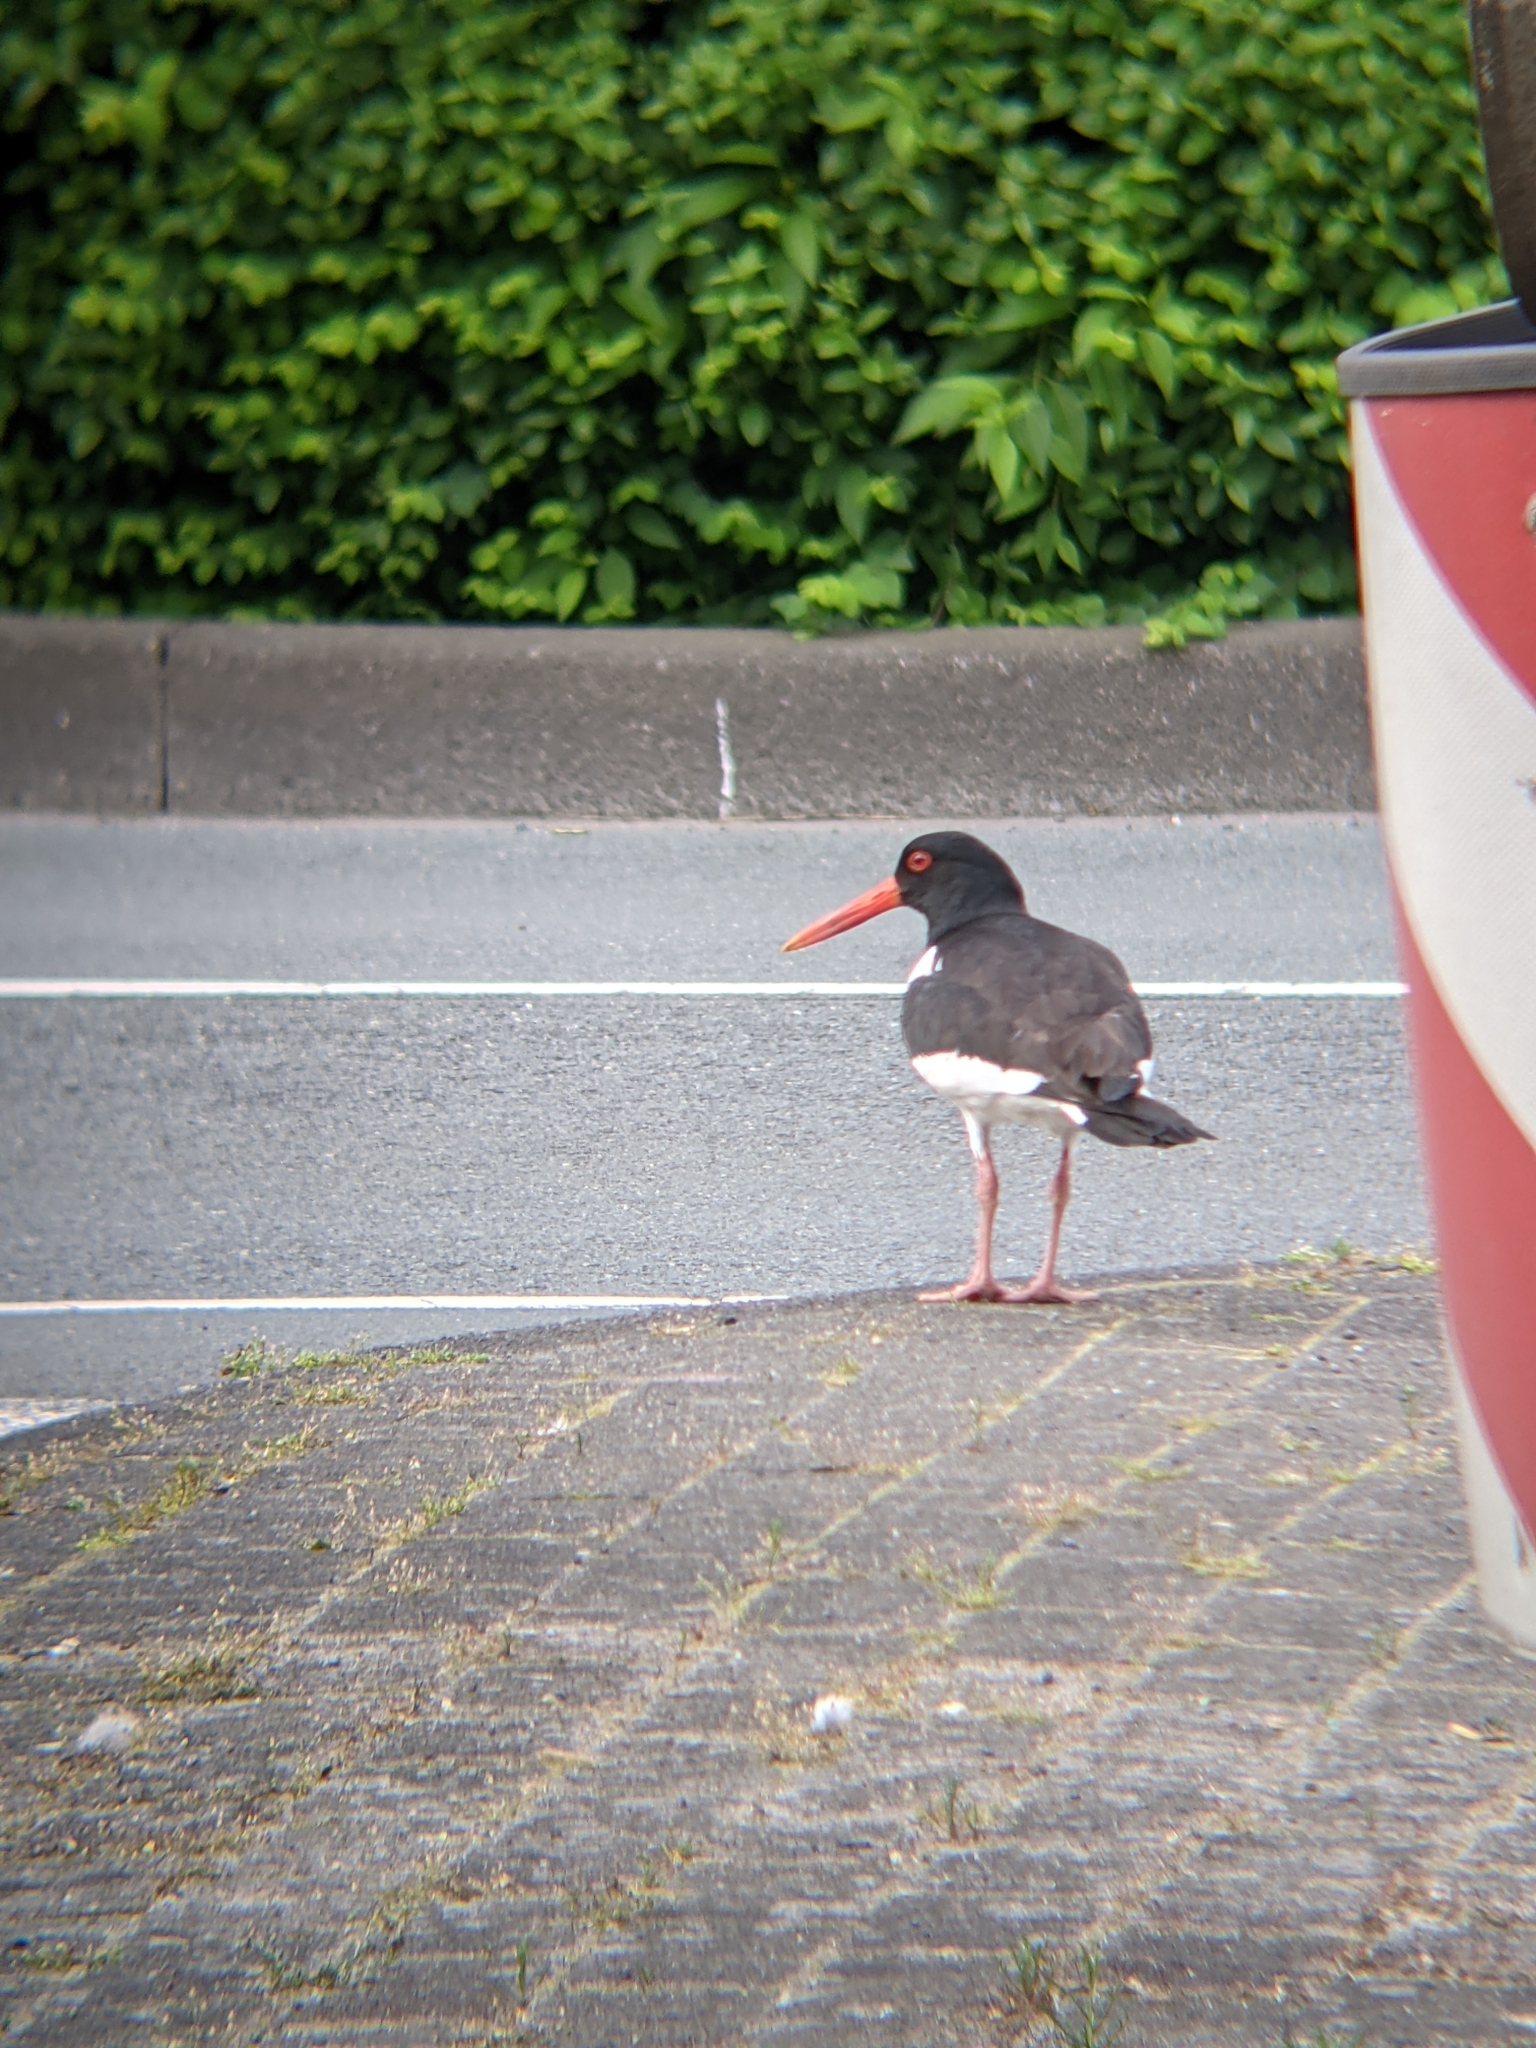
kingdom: Animalia
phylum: Chordata
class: Aves
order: Charadriiformes
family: Haematopodidae
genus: Haematopus
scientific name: Haematopus ostralegus
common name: Eurasian oystercatcher
